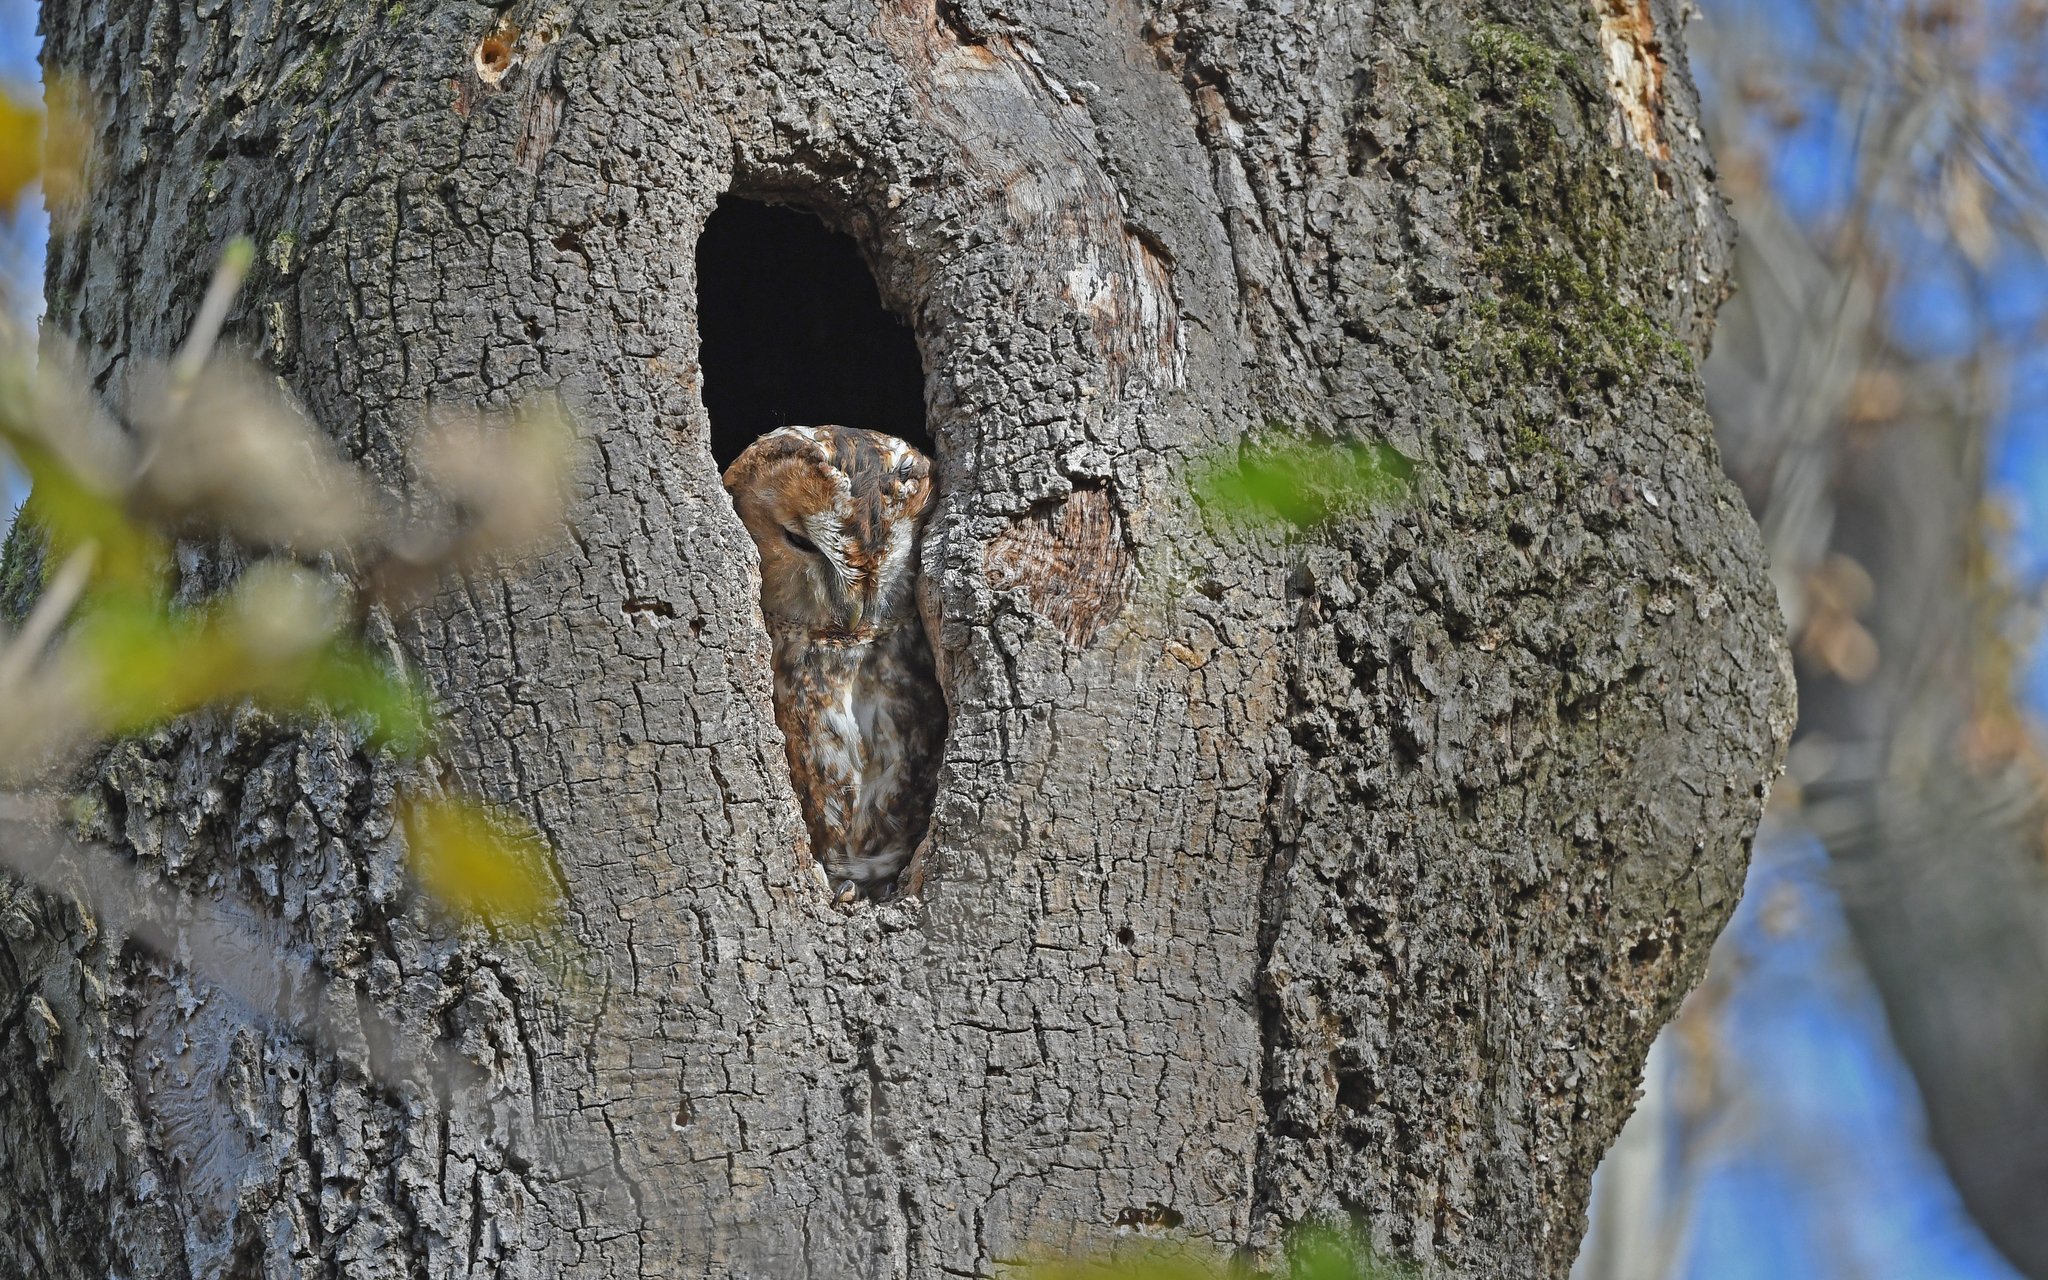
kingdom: Animalia
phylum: Chordata
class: Aves
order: Strigiformes
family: Strigidae
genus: Strix
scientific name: Strix aluco
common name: Tawny owl
